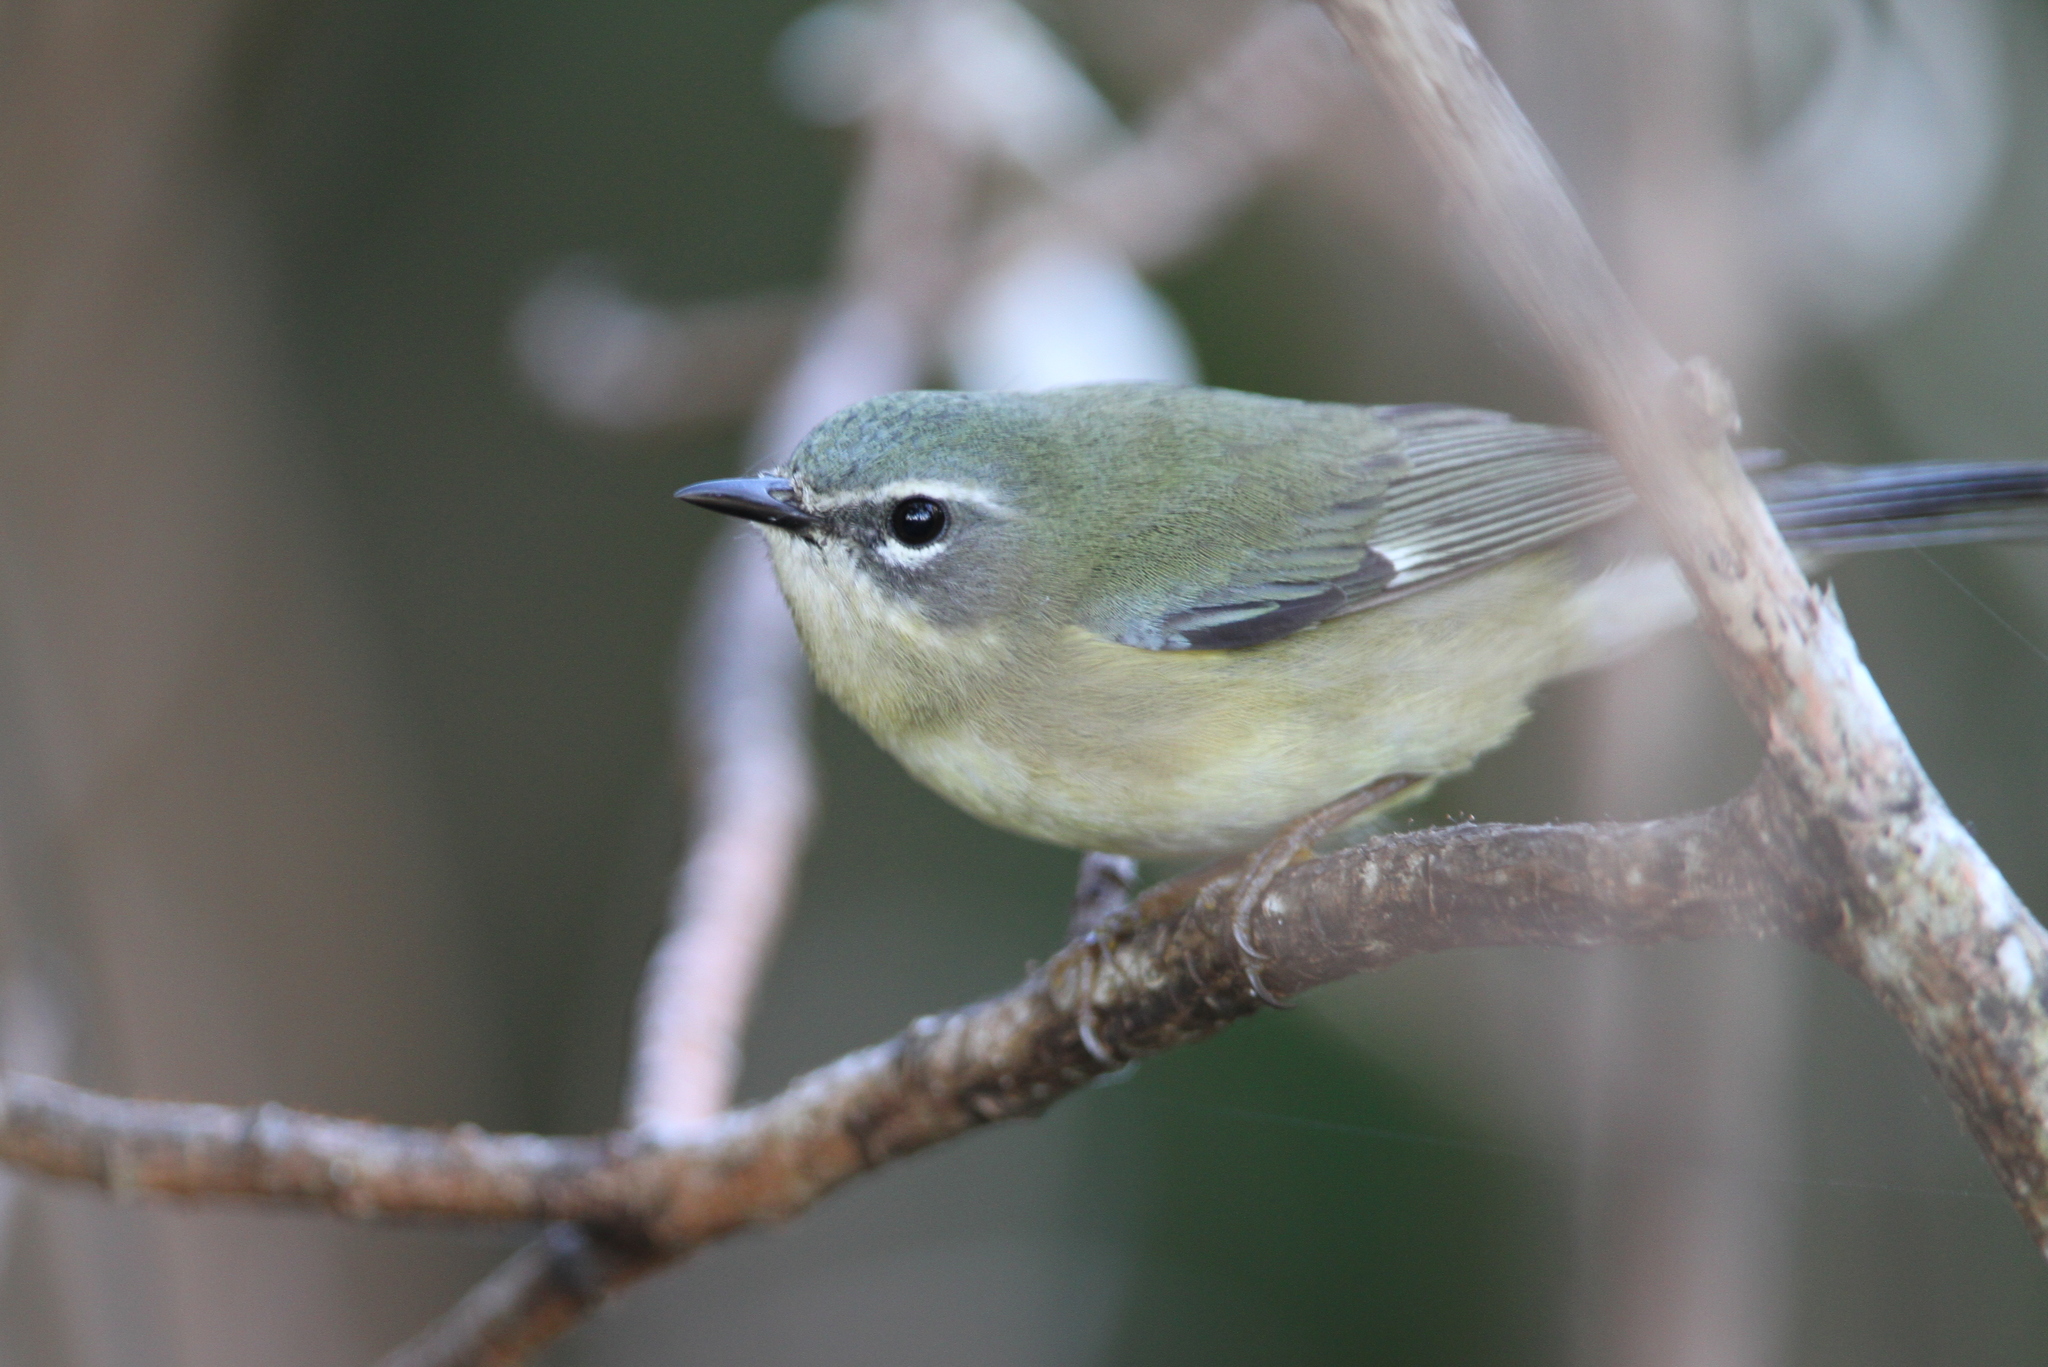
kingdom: Animalia
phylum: Chordata
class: Aves
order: Passeriformes
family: Parulidae
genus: Setophaga
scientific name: Setophaga caerulescens
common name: Black-throated blue warbler
